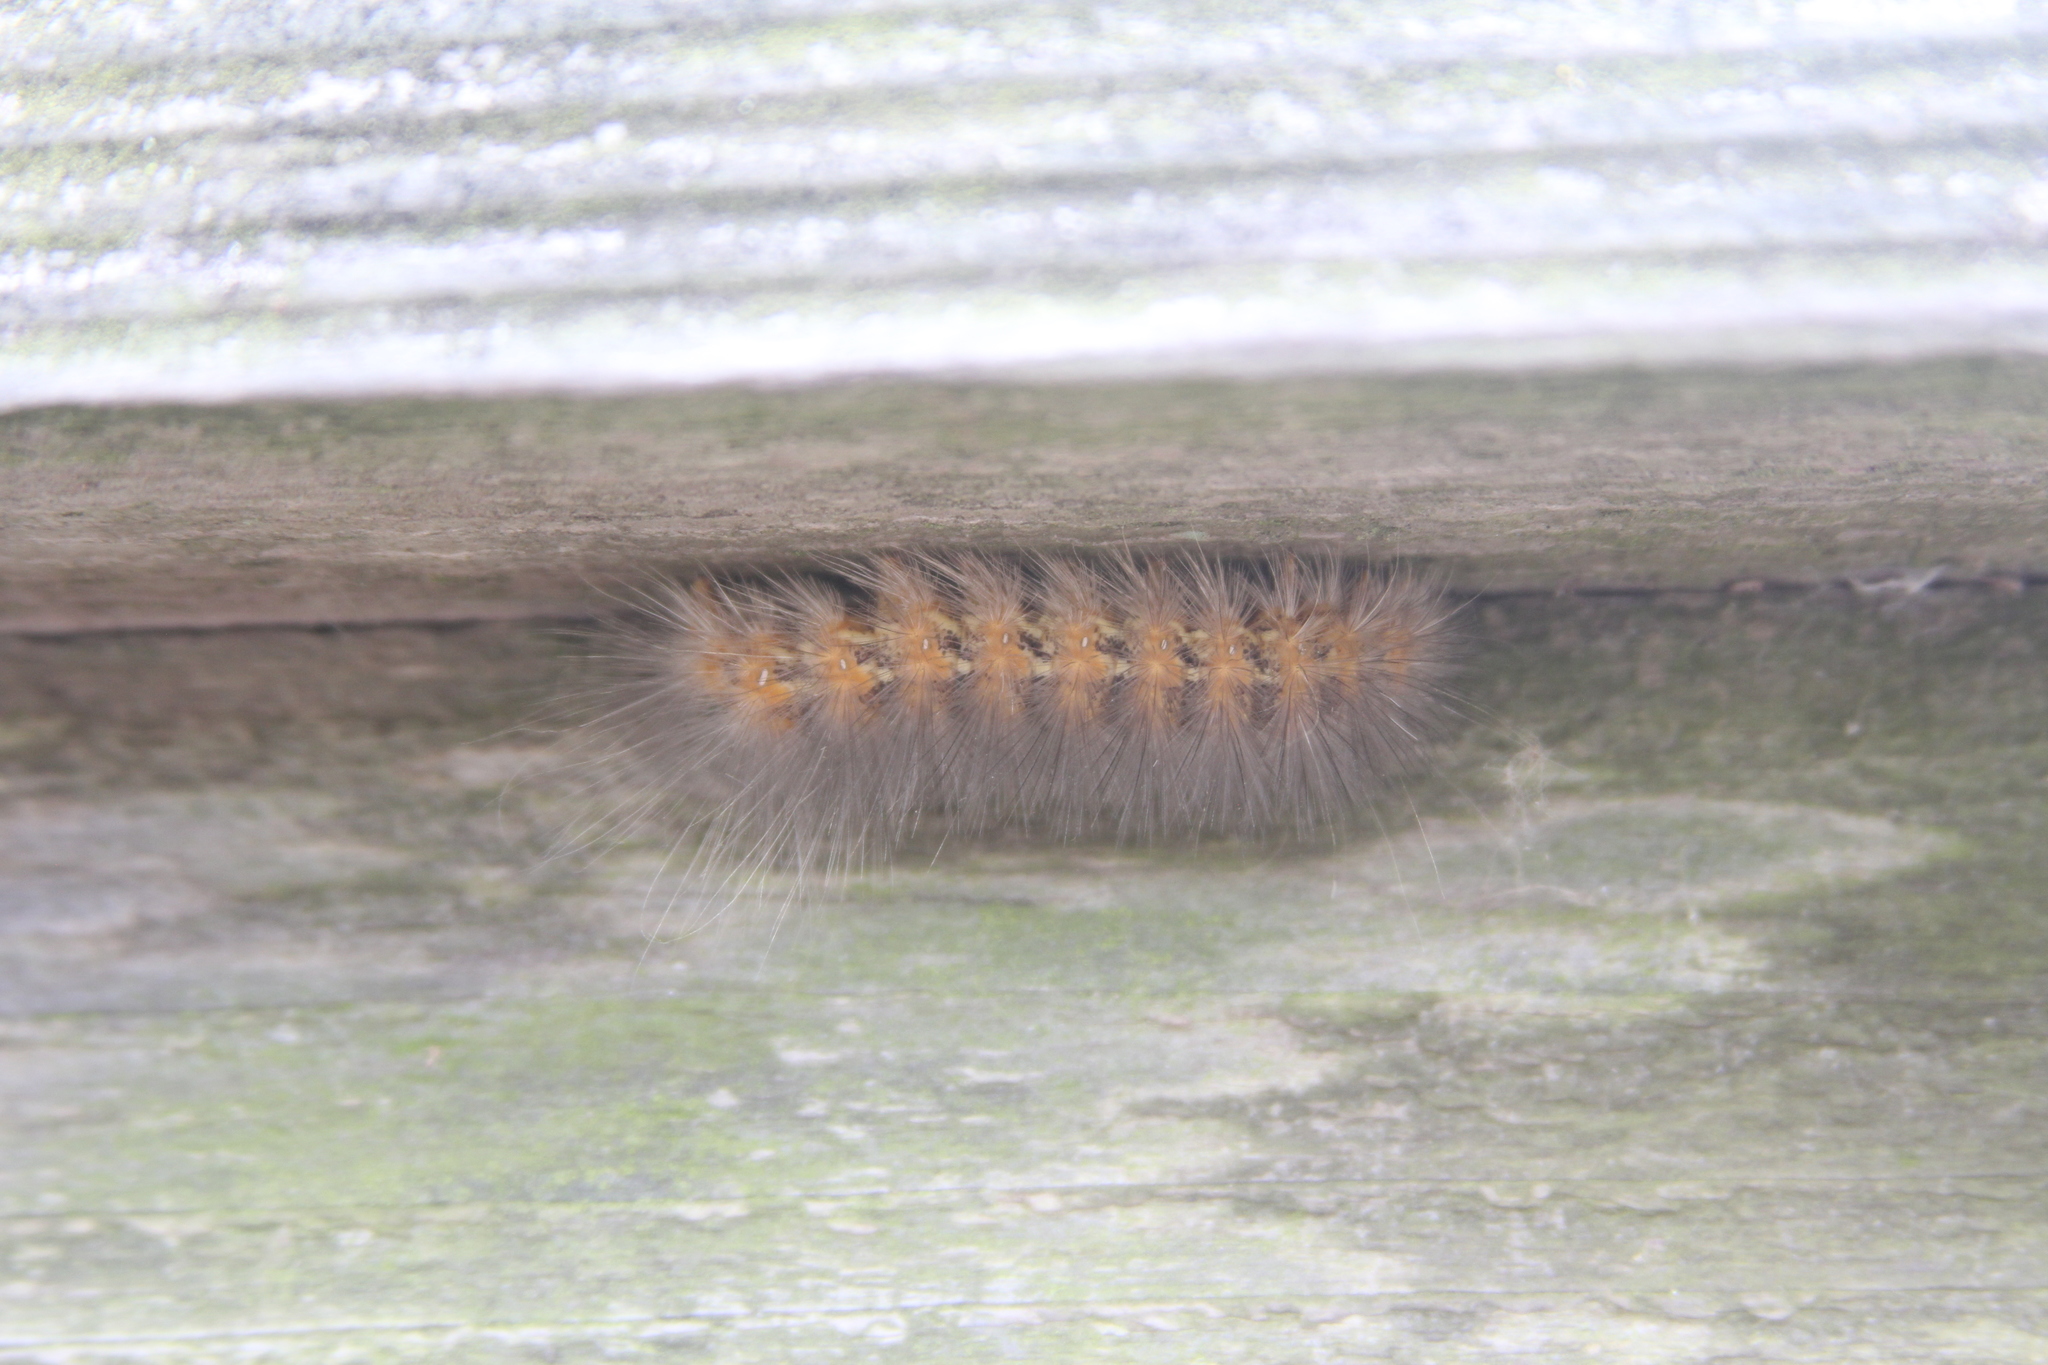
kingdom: Animalia
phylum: Arthropoda
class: Insecta
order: Lepidoptera
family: Erebidae
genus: Estigmene
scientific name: Estigmene acrea
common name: Salt marsh moth
